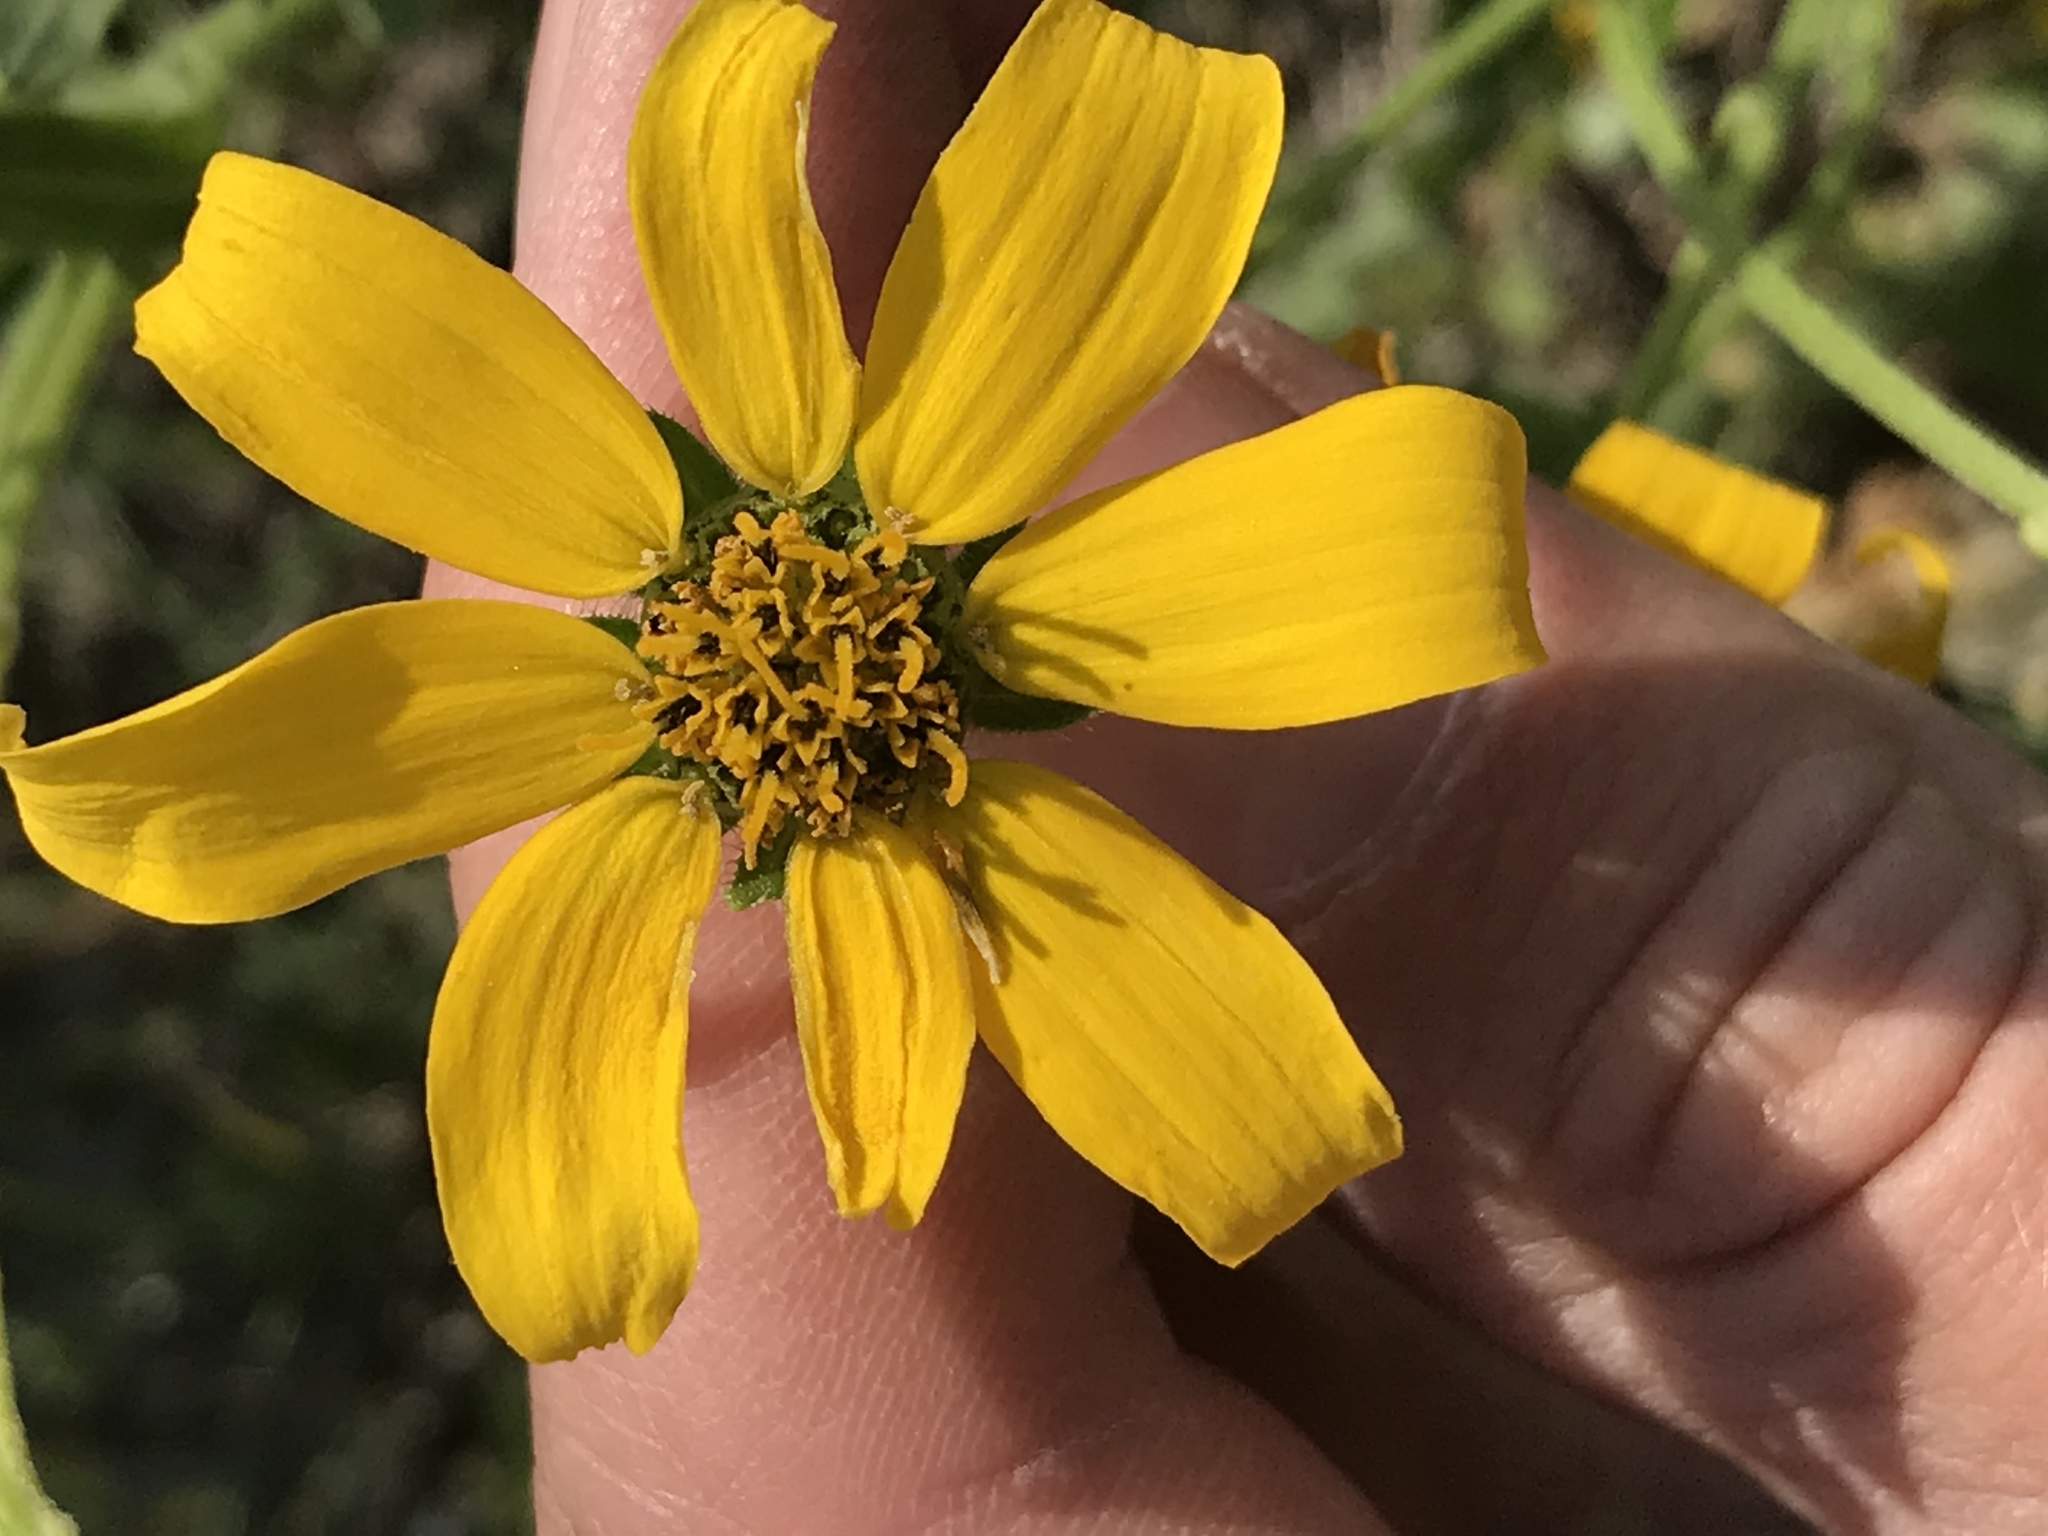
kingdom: Plantae
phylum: Tracheophyta
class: Magnoliopsida
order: Asterales
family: Asteraceae
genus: Engelmannia
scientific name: Engelmannia peristenia
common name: Engelmann's daisy
